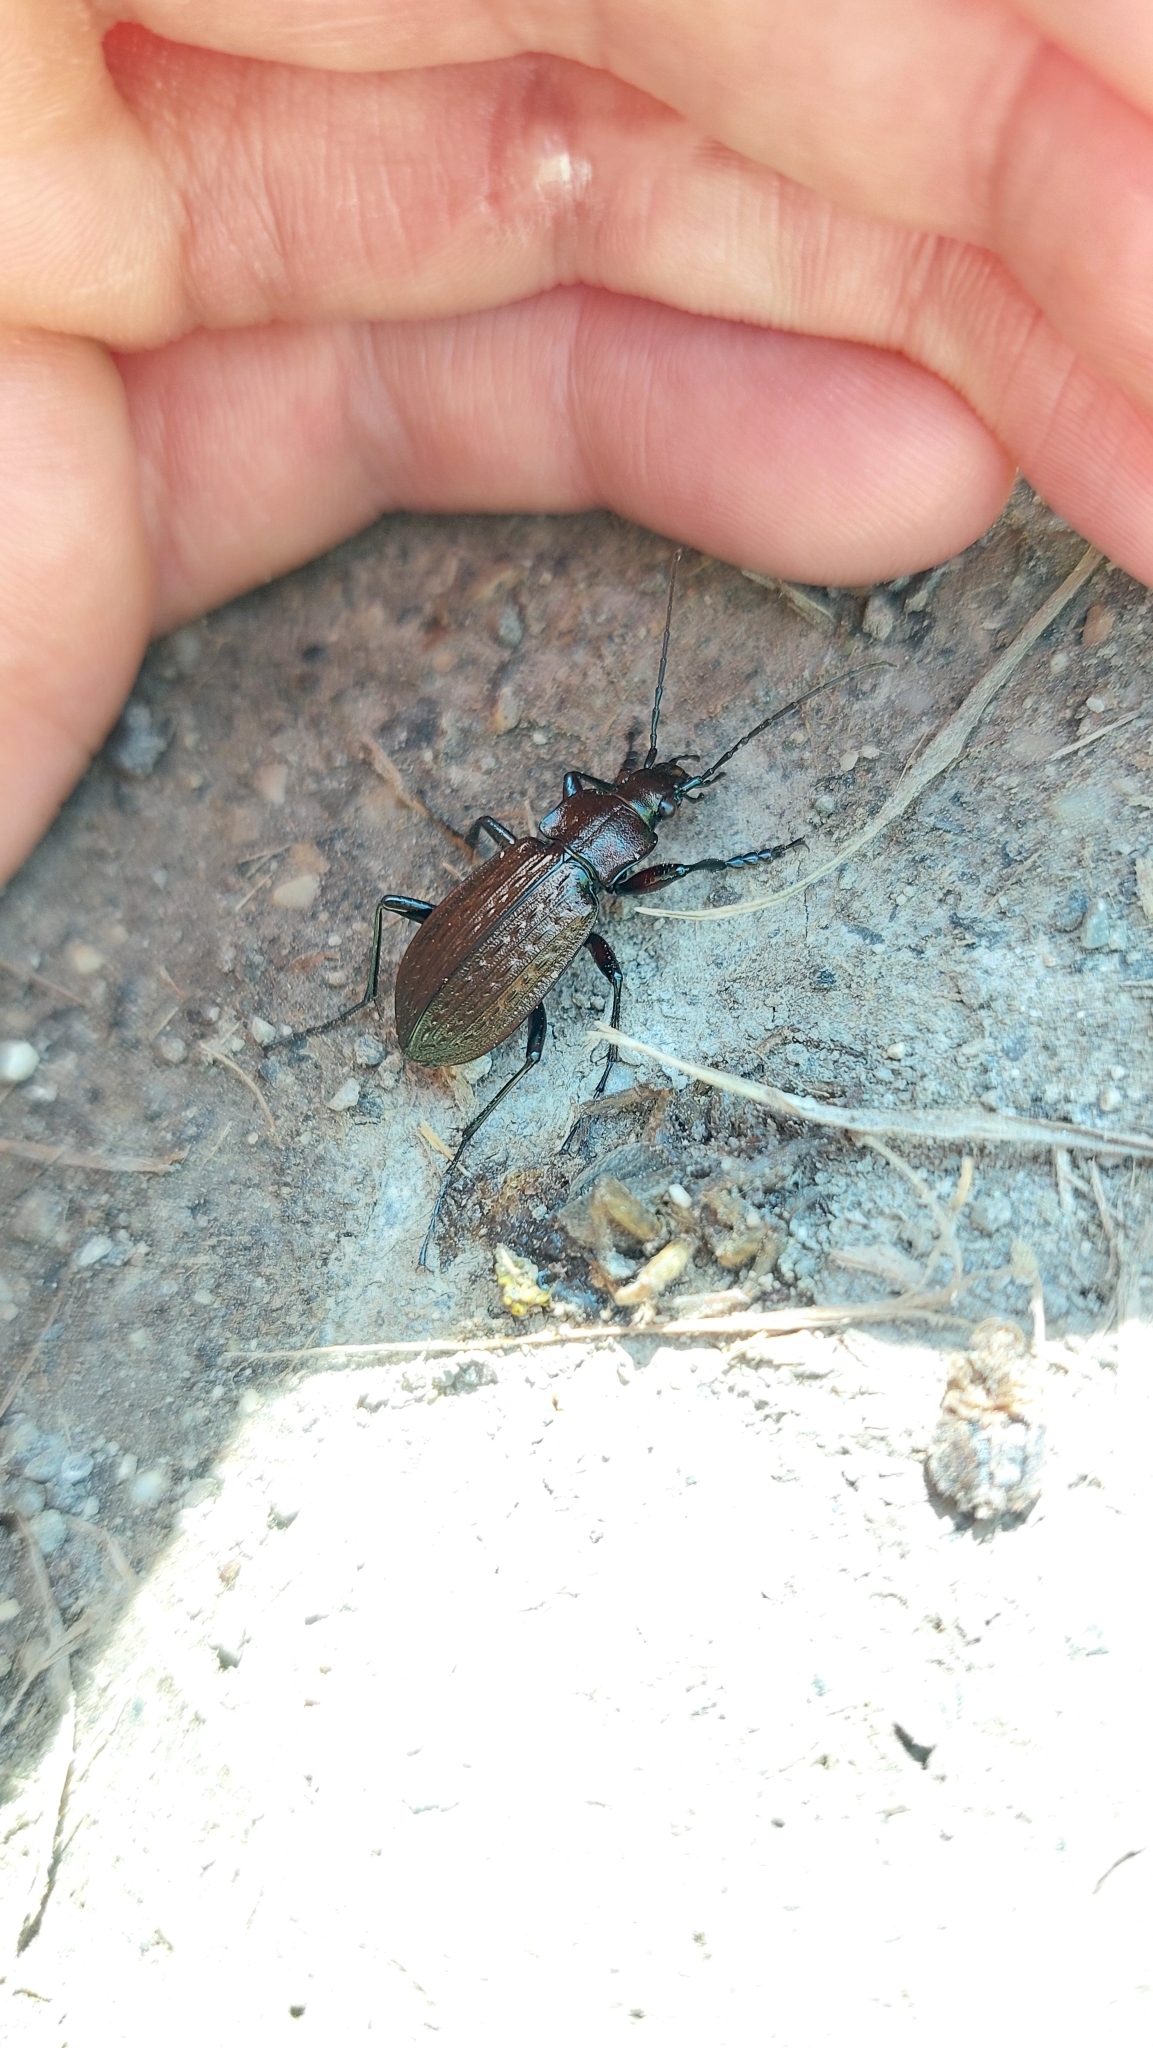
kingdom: Animalia
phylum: Arthropoda
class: Insecta
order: Coleoptera
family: Carabidae
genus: Carabus
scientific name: Carabus granulatus
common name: Granulate ground beetle
